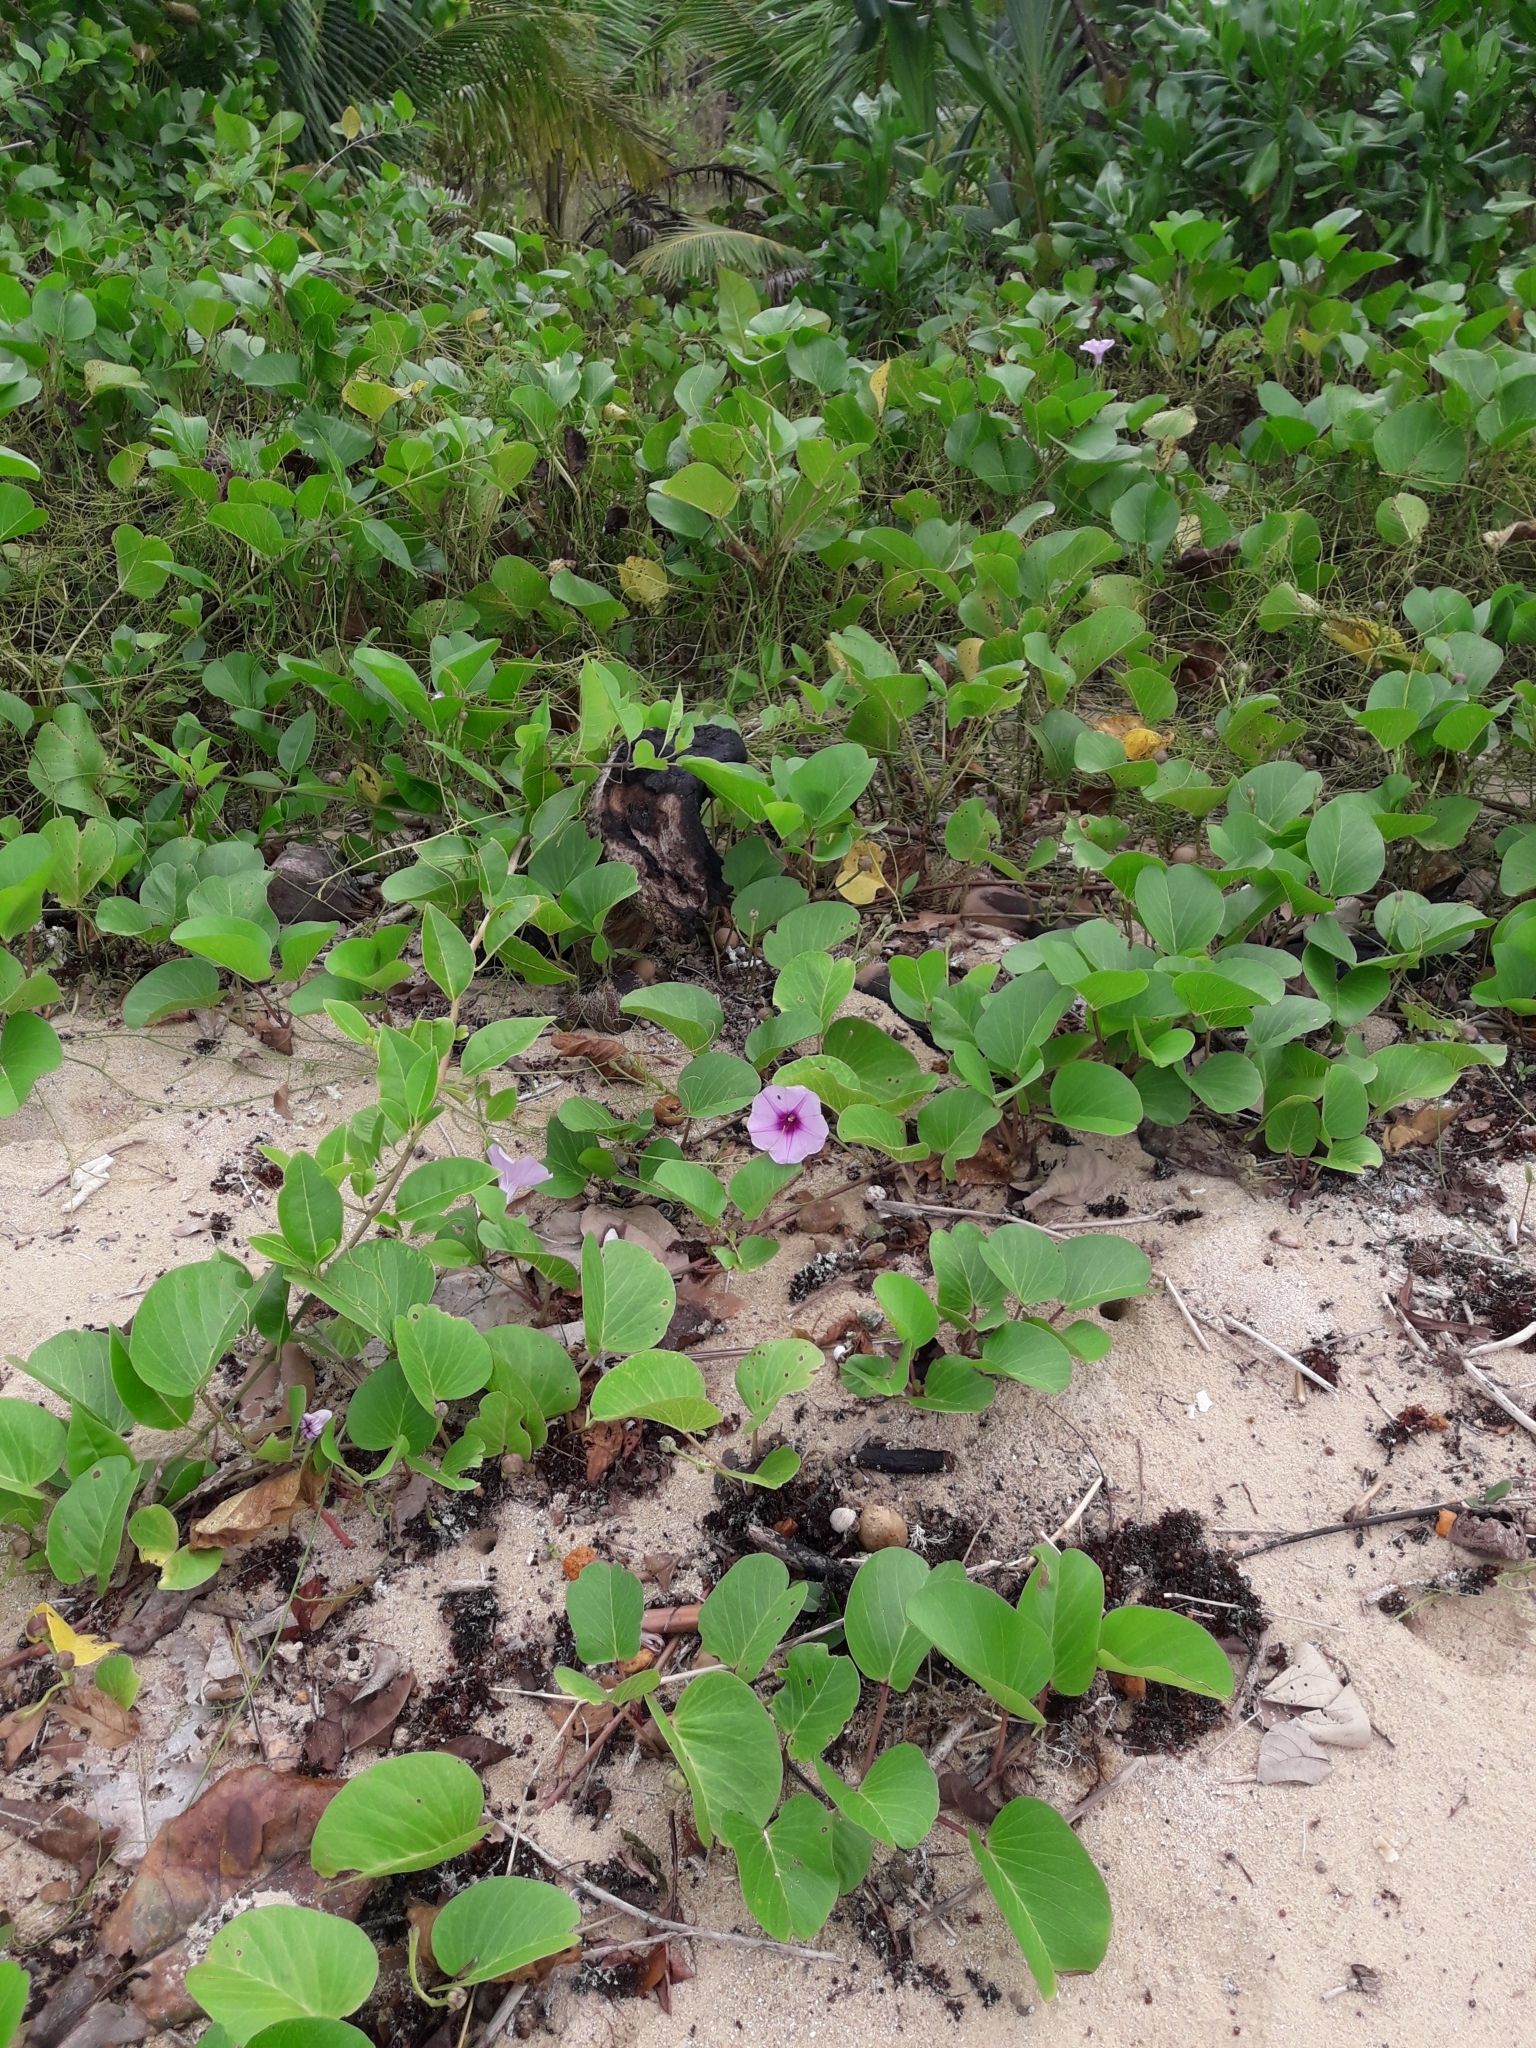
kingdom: Plantae
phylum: Tracheophyta
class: Magnoliopsida
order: Solanales
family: Convolvulaceae
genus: Ipomoea
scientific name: Ipomoea pes-caprae
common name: Beach morning glory
